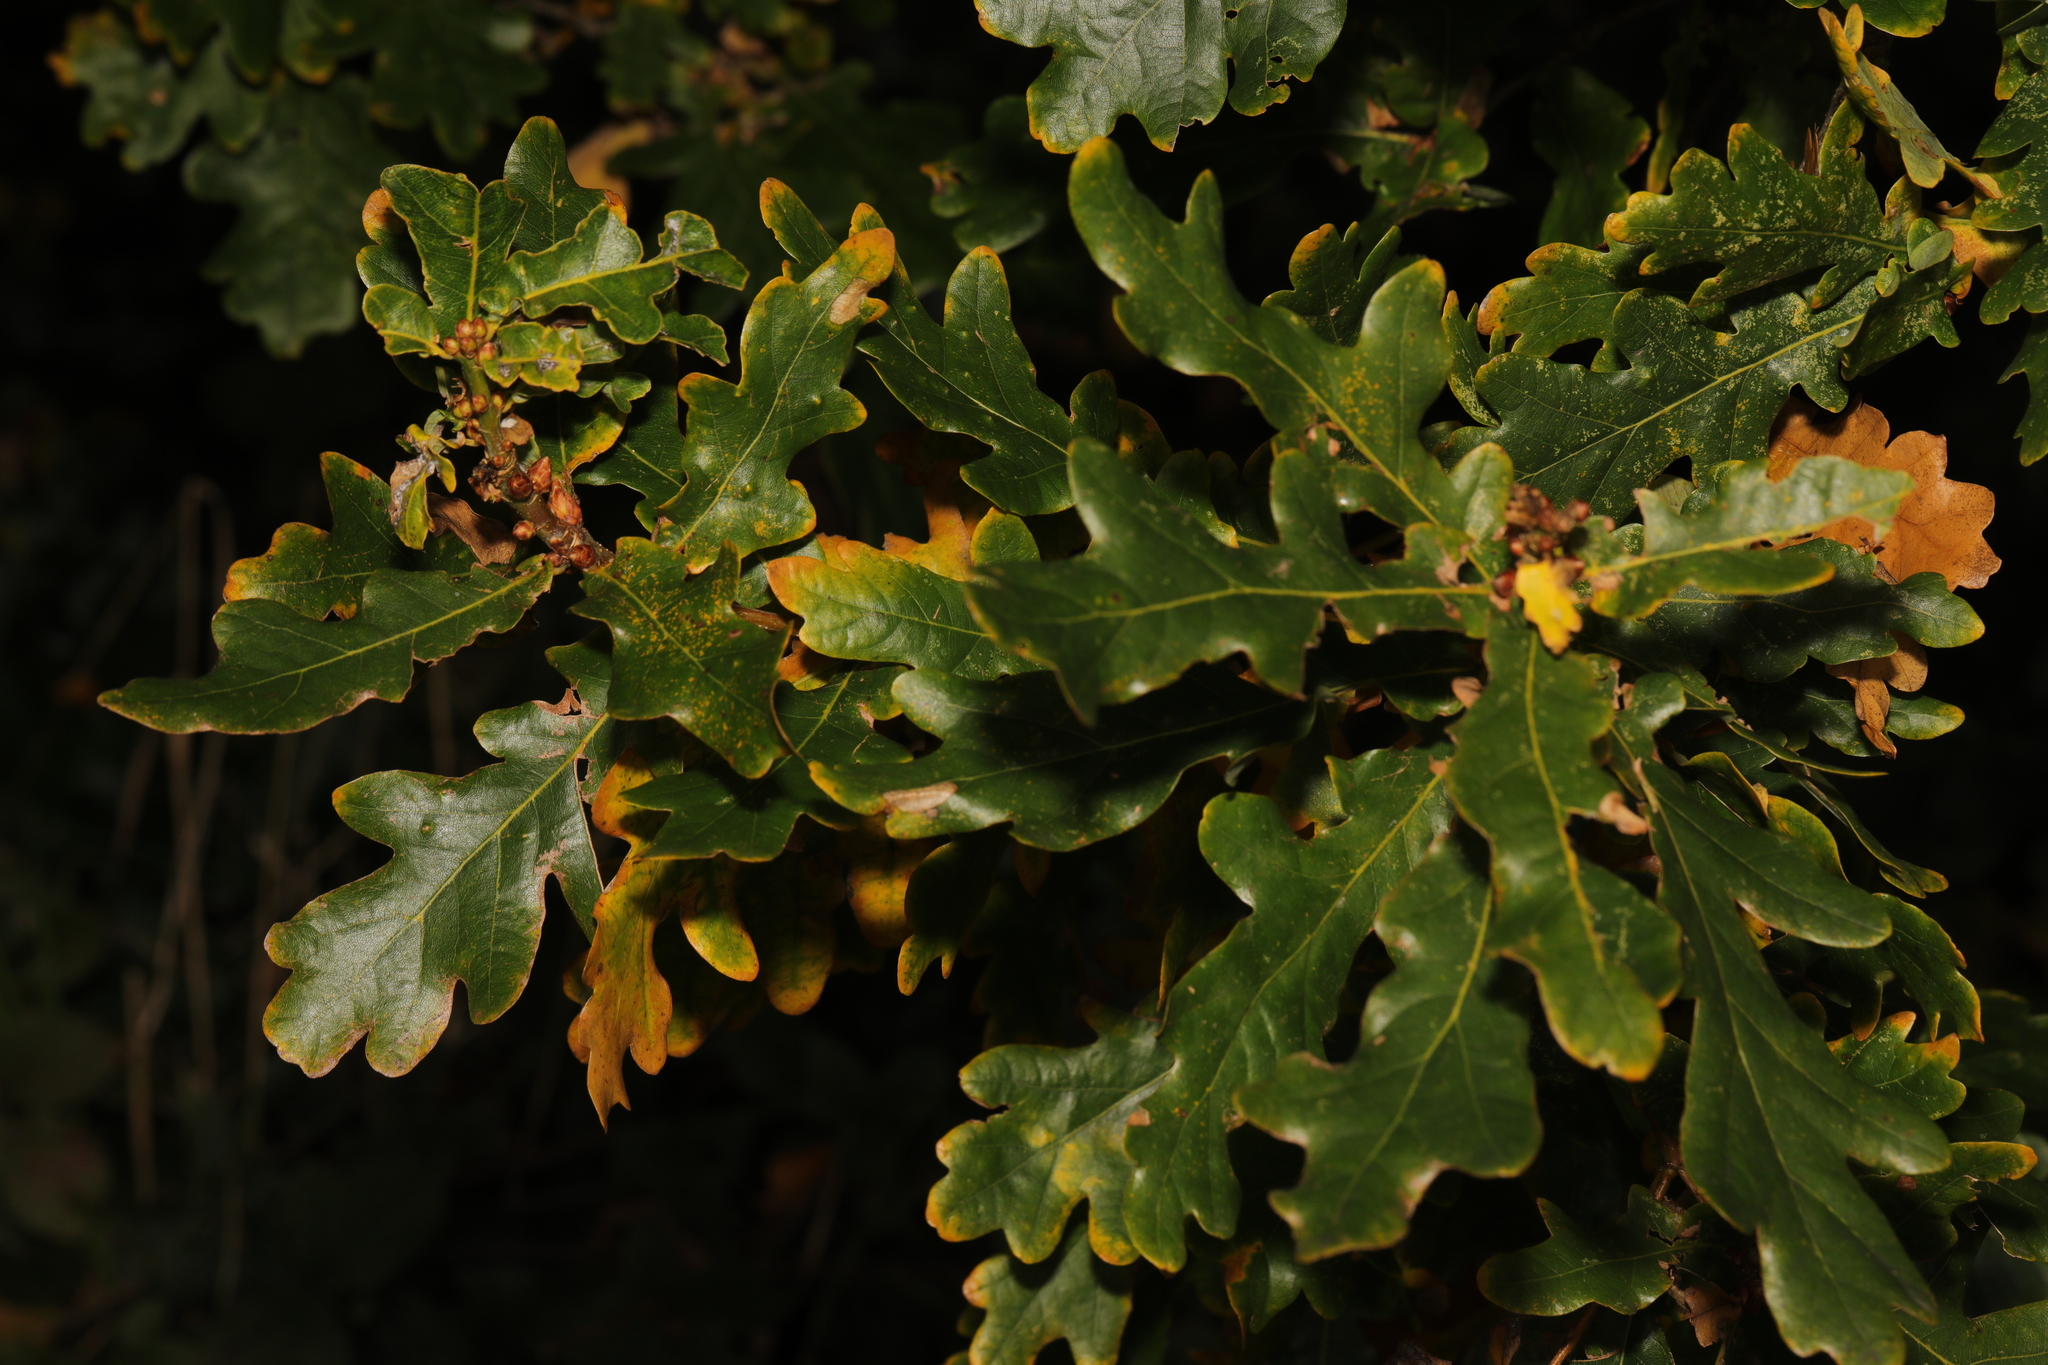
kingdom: Plantae
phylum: Tracheophyta
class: Magnoliopsida
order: Fagales
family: Fagaceae
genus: Quercus
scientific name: Quercus robur
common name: Pedunculate oak
